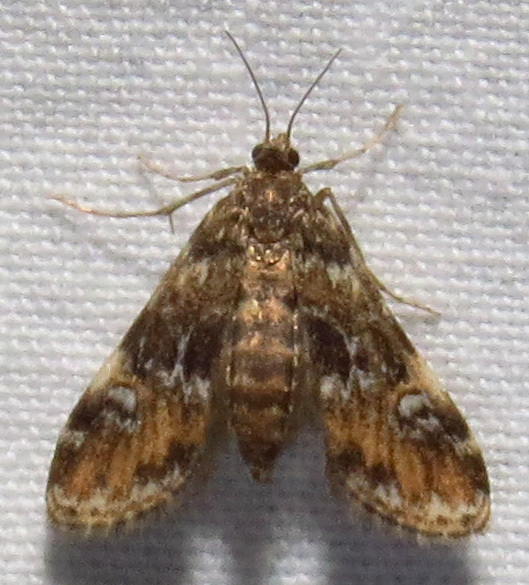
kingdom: Animalia
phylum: Arthropoda
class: Insecta
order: Lepidoptera
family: Crambidae
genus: Elophila
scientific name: Elophila obliteralis
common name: Waterlily leafcutter moth
